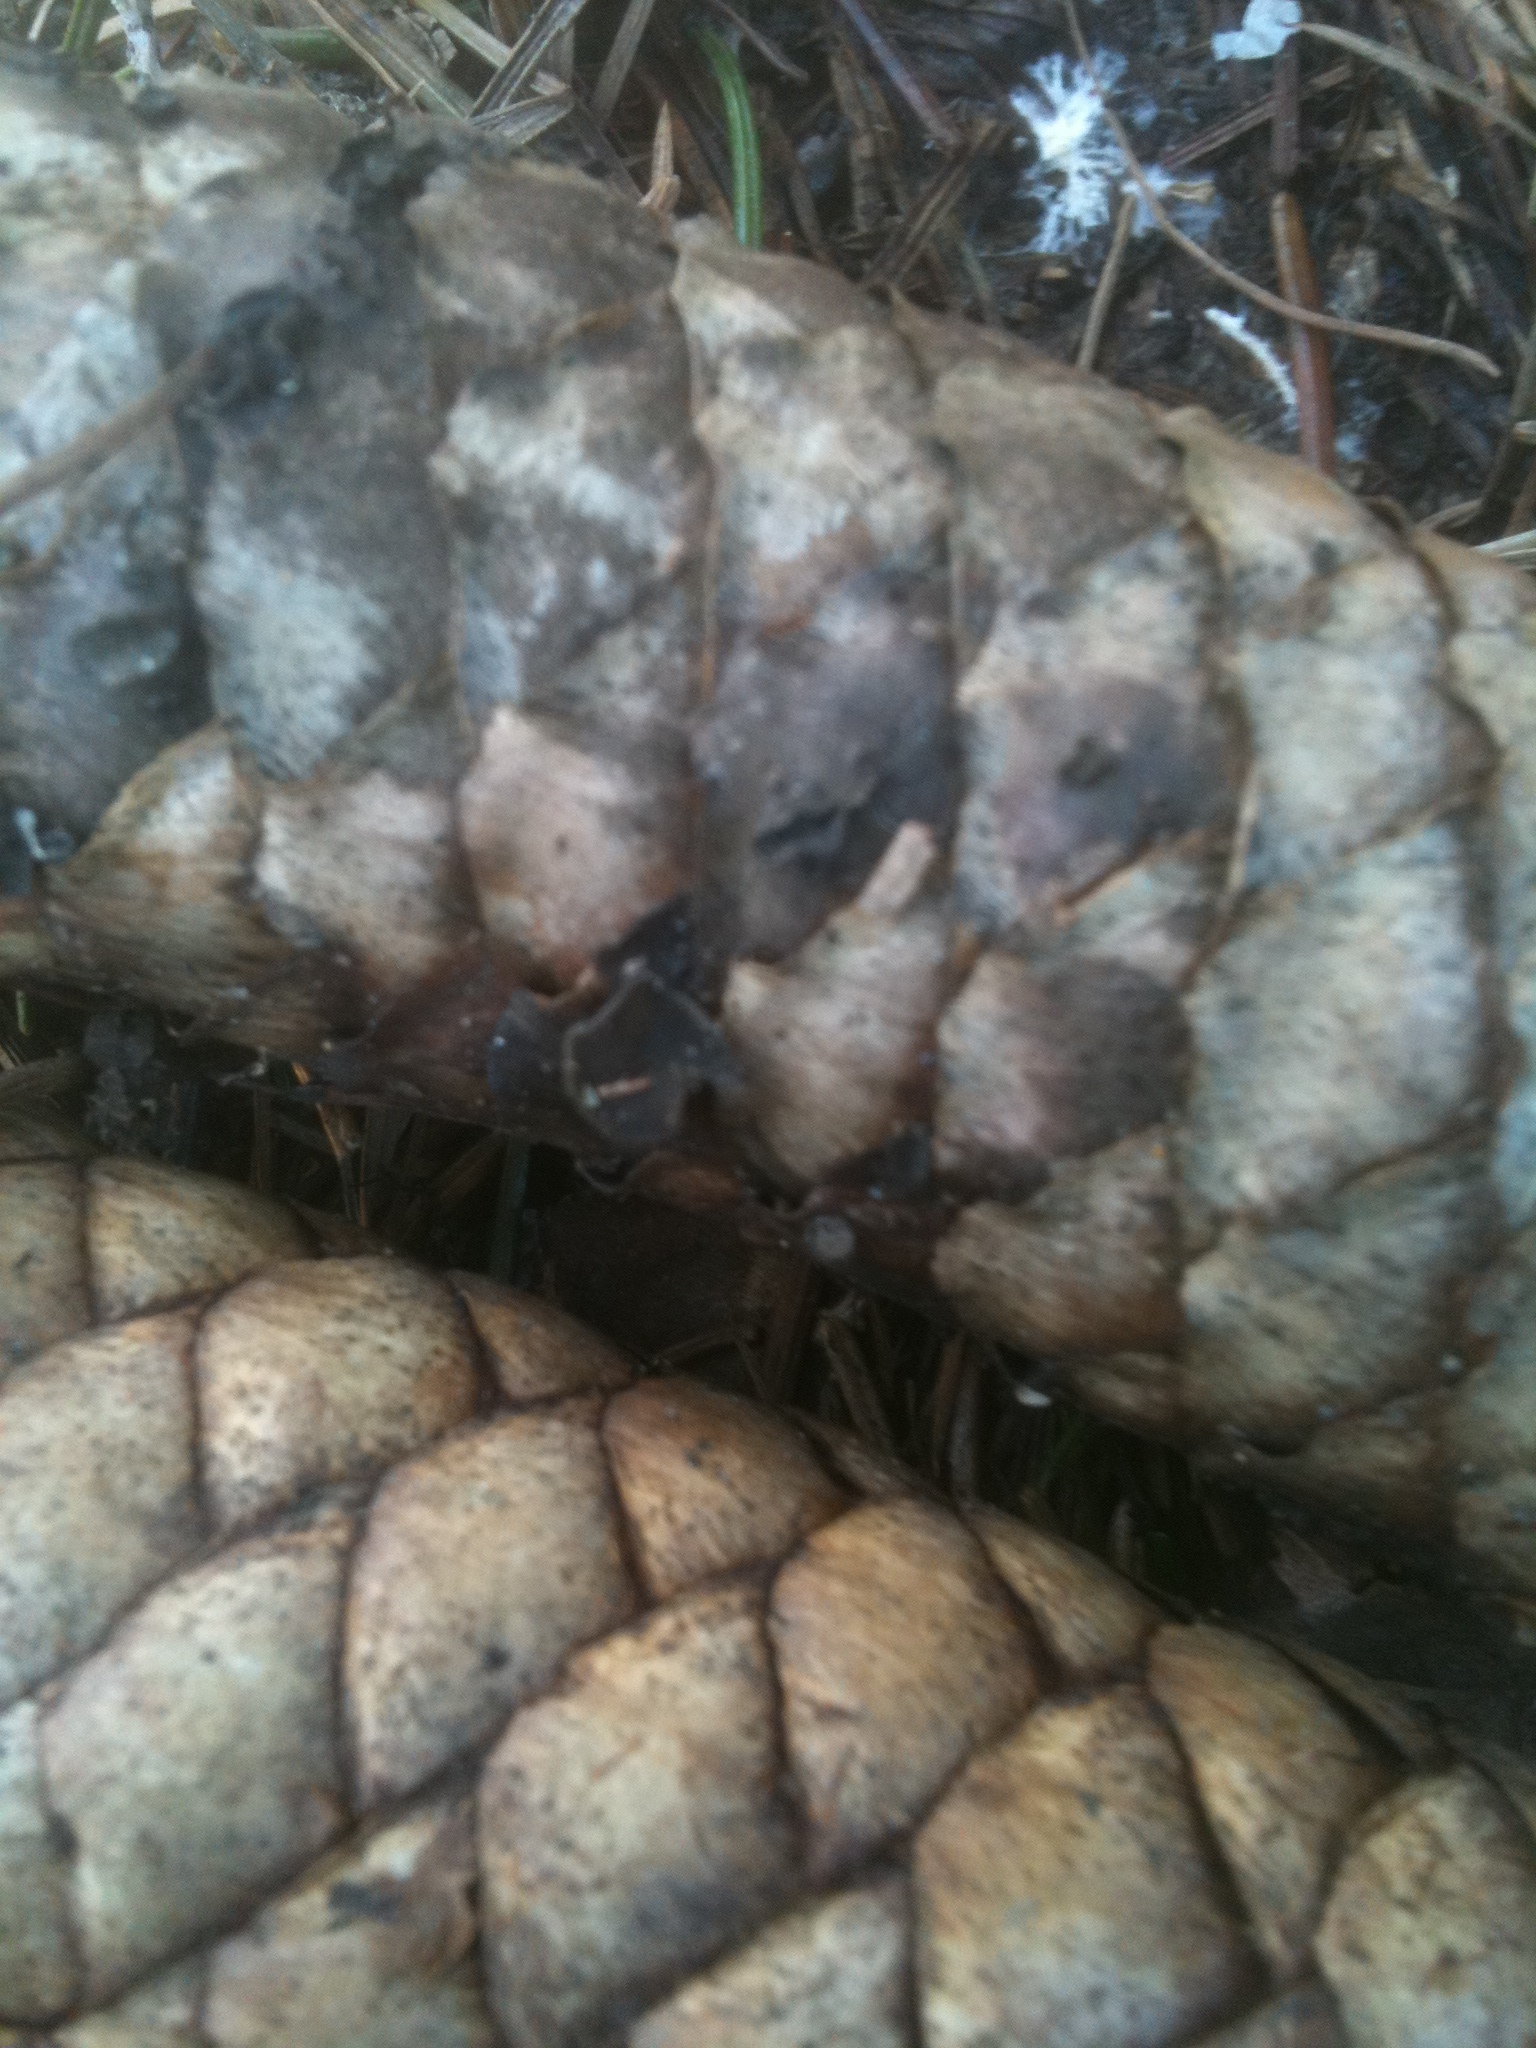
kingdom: Fungi
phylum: Ascomycota
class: Leotiomycetes
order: Helotiales
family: Rutstroemiaceae
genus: Rutstroemia
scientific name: Rutstroemia bulgarioides
